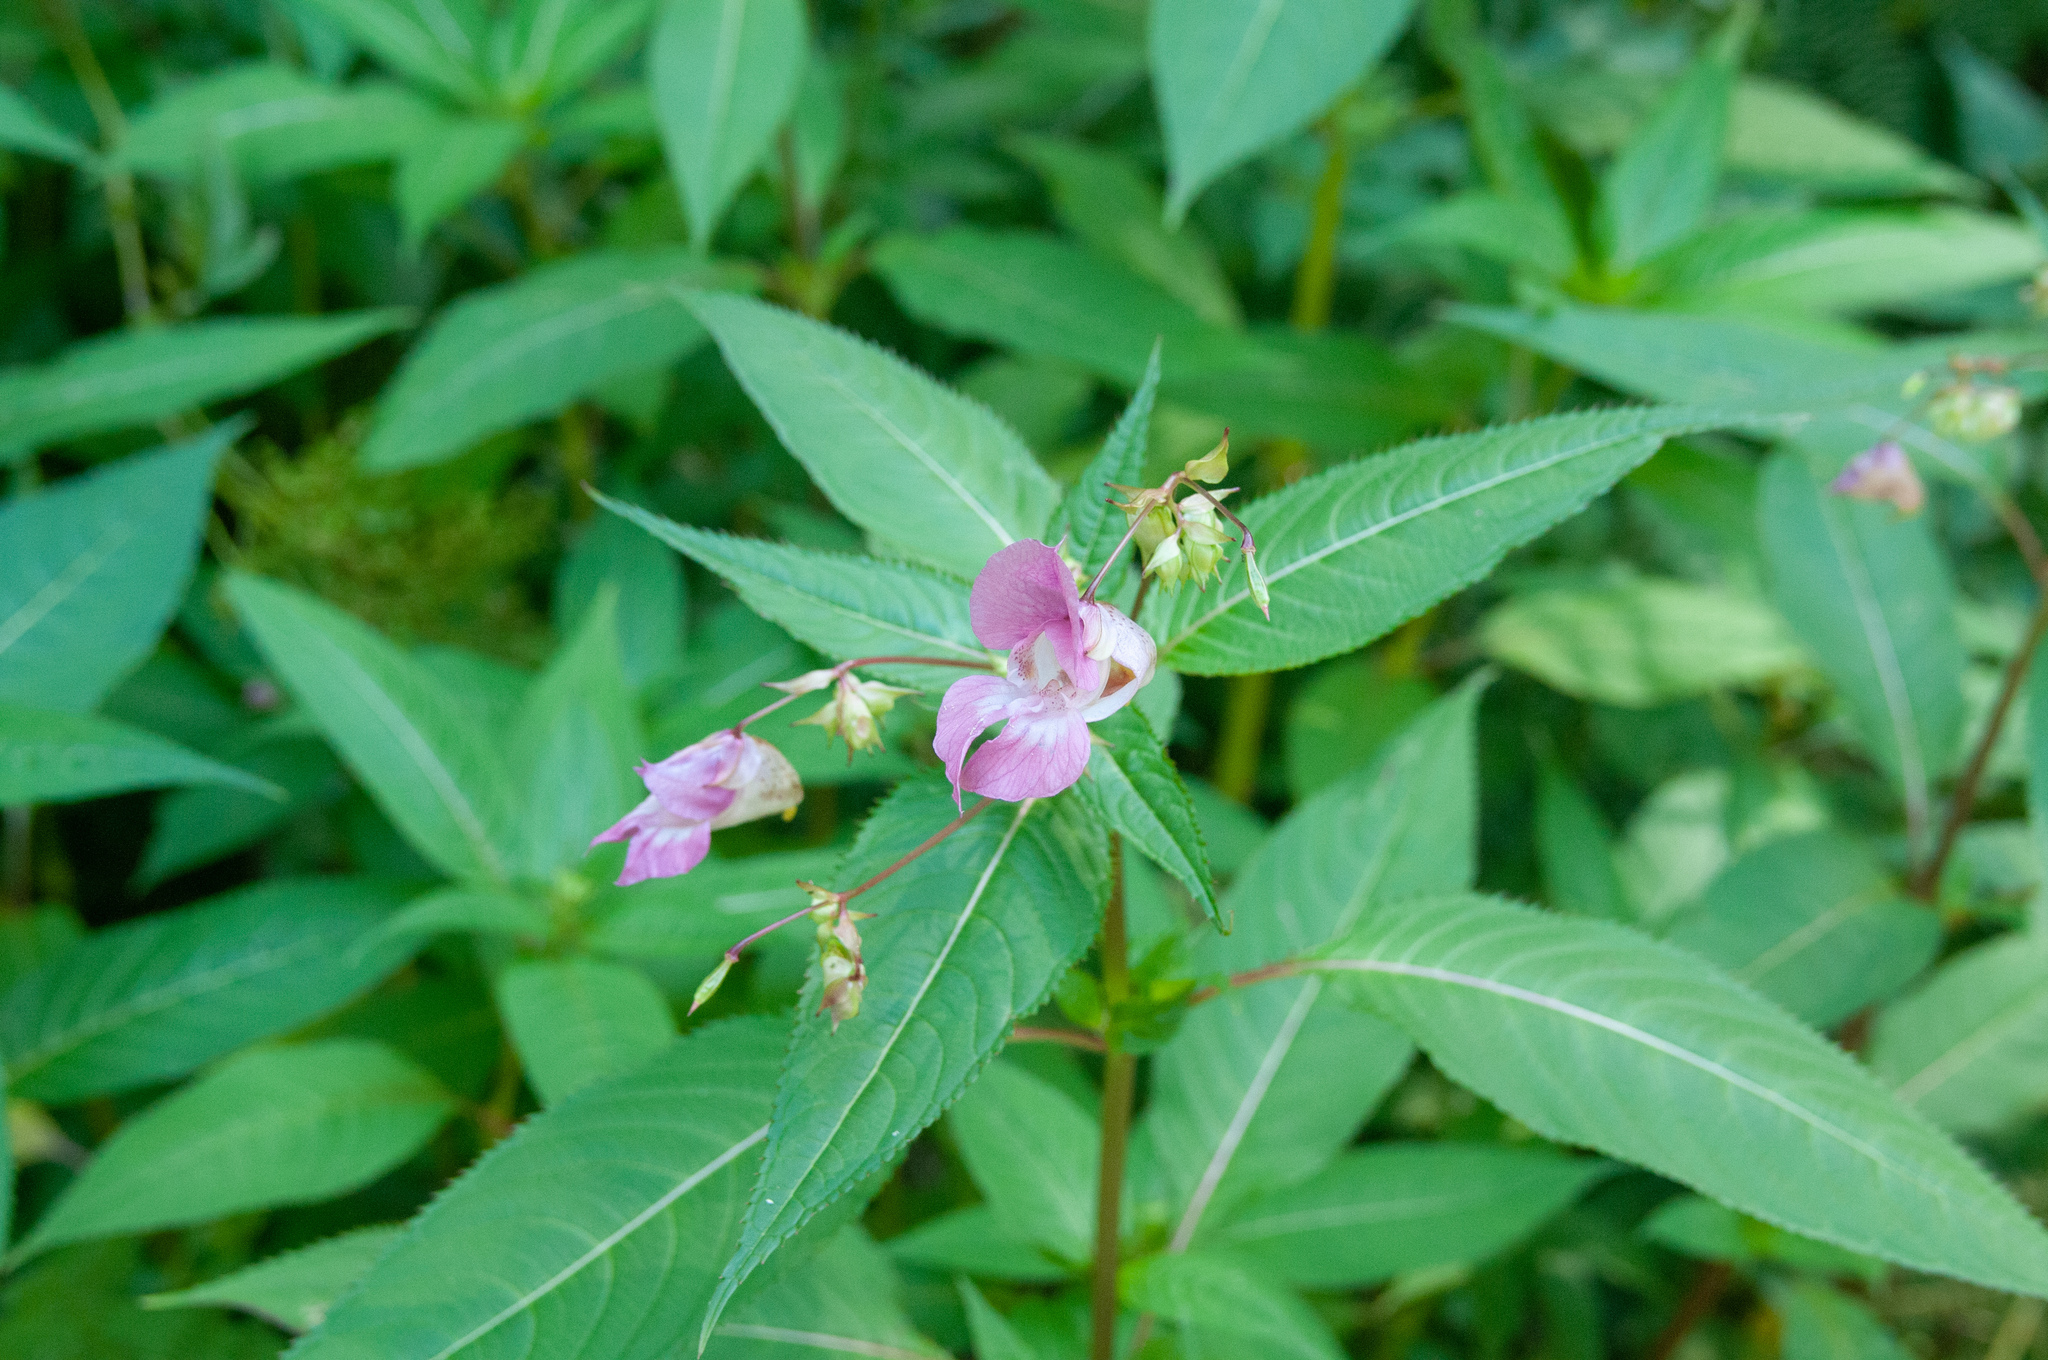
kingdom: Plantae
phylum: Tracheophyta
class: Magnoliopsida
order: Ericales
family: Balsaminaceae
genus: Impatiens
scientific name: Impatiens glandulifera
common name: Himalayan balsam
